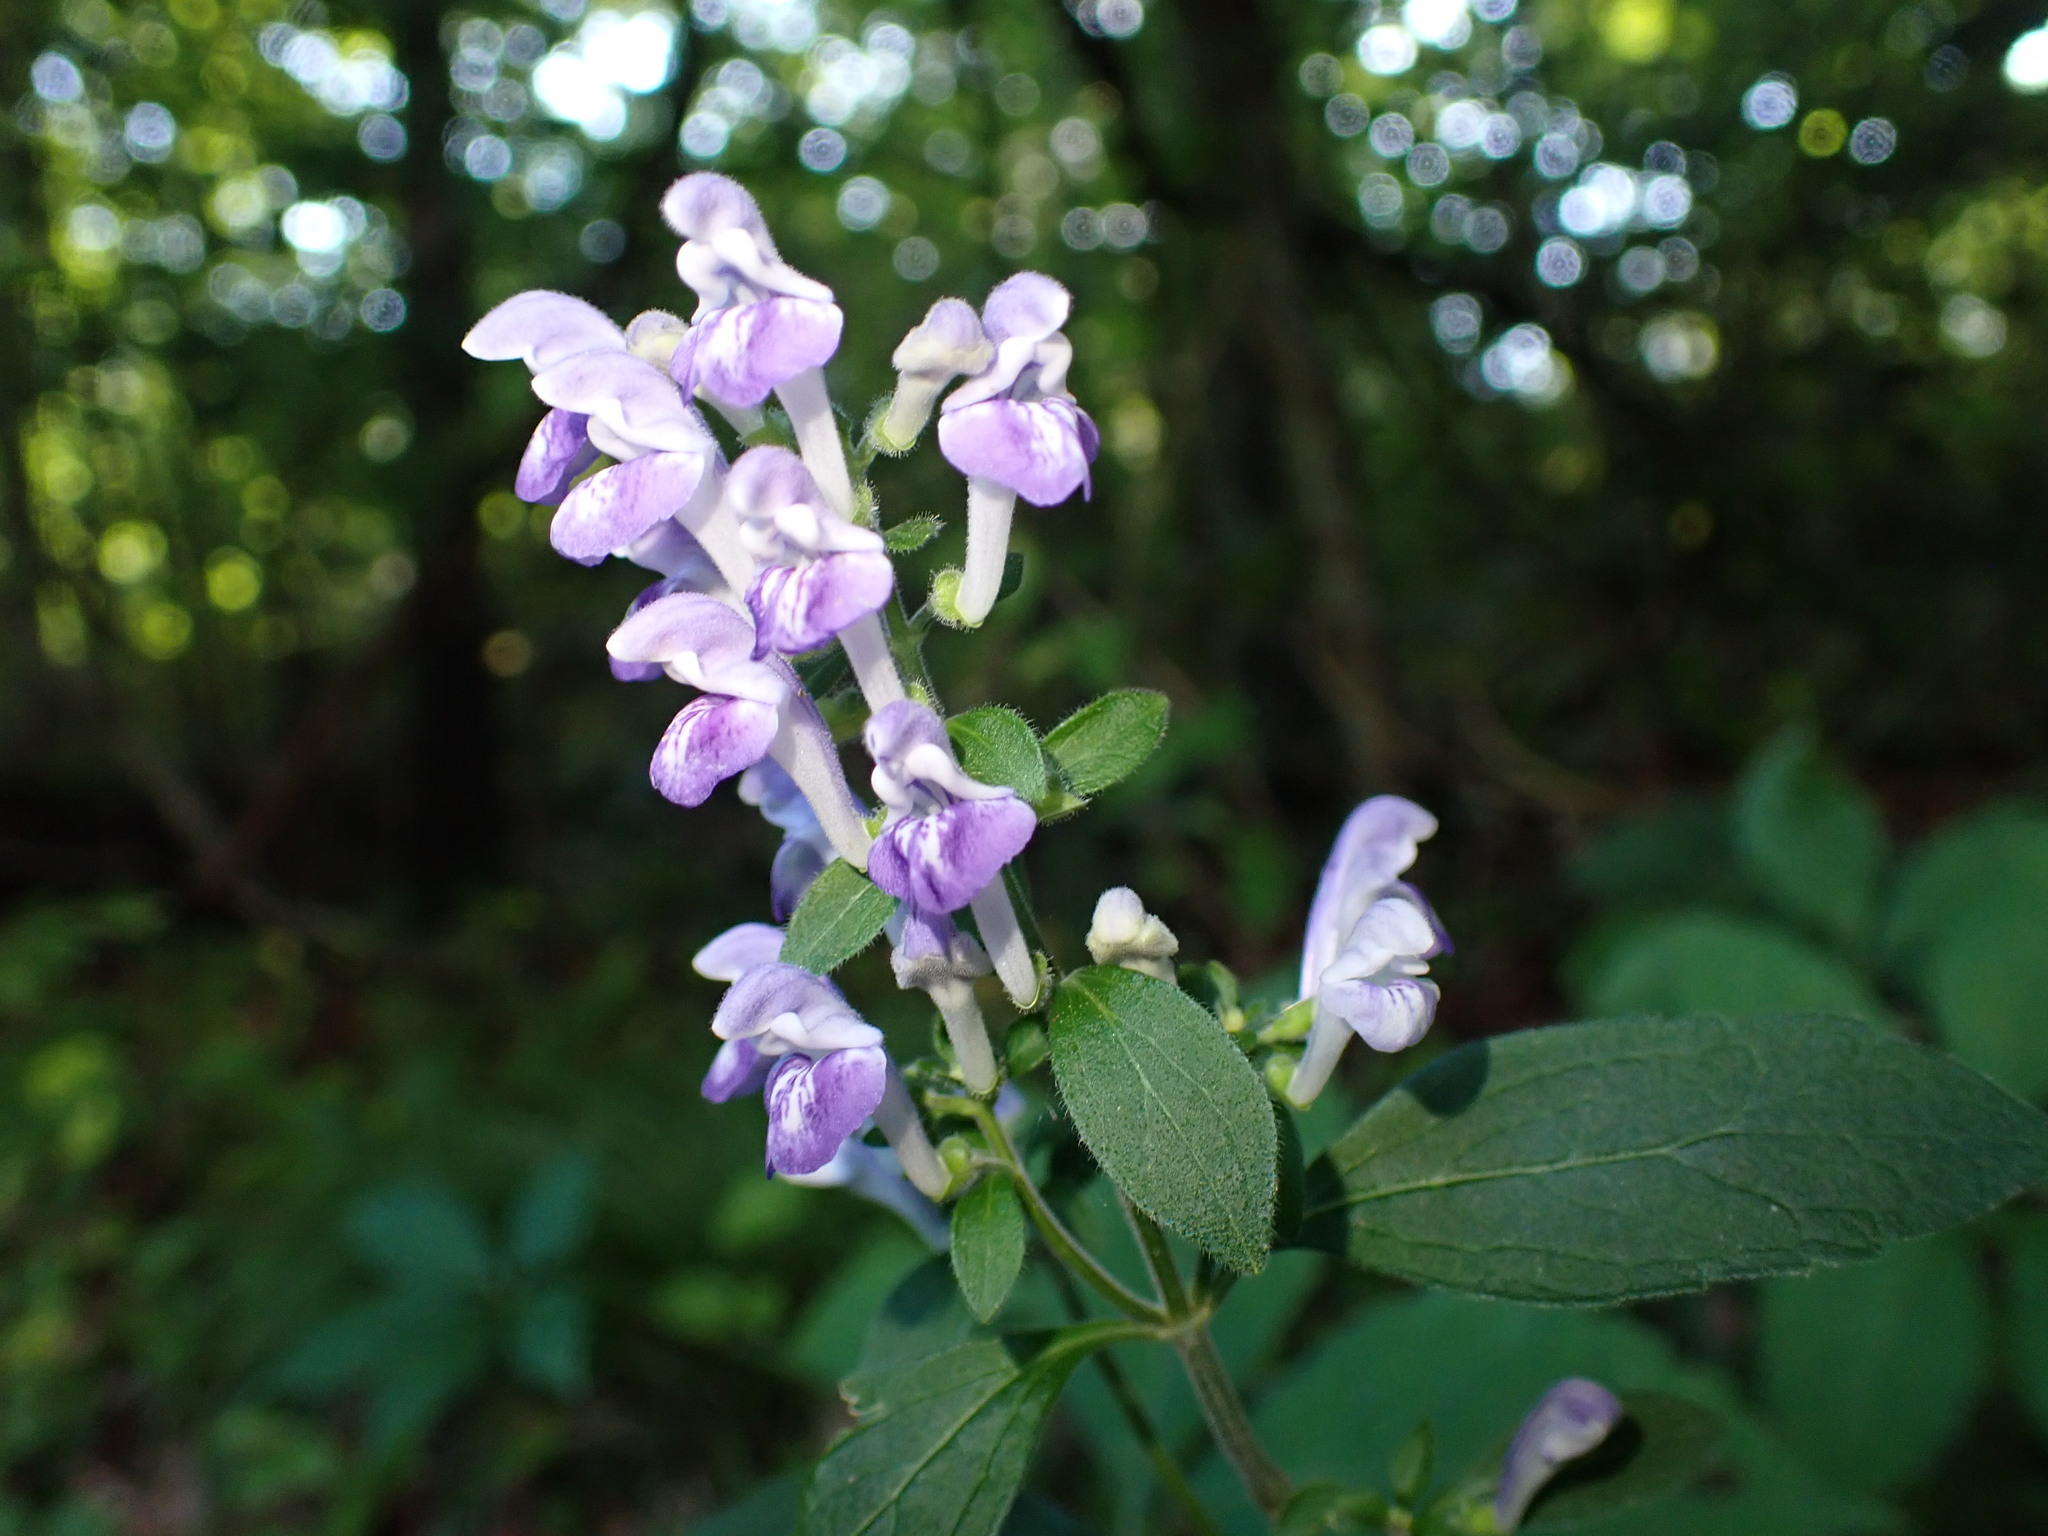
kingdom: Plantae
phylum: Tracheophyta
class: Magnoliopsida
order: Lamiales
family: Lamiaceae
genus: Scutellaria
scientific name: Scutellaria elliptica
